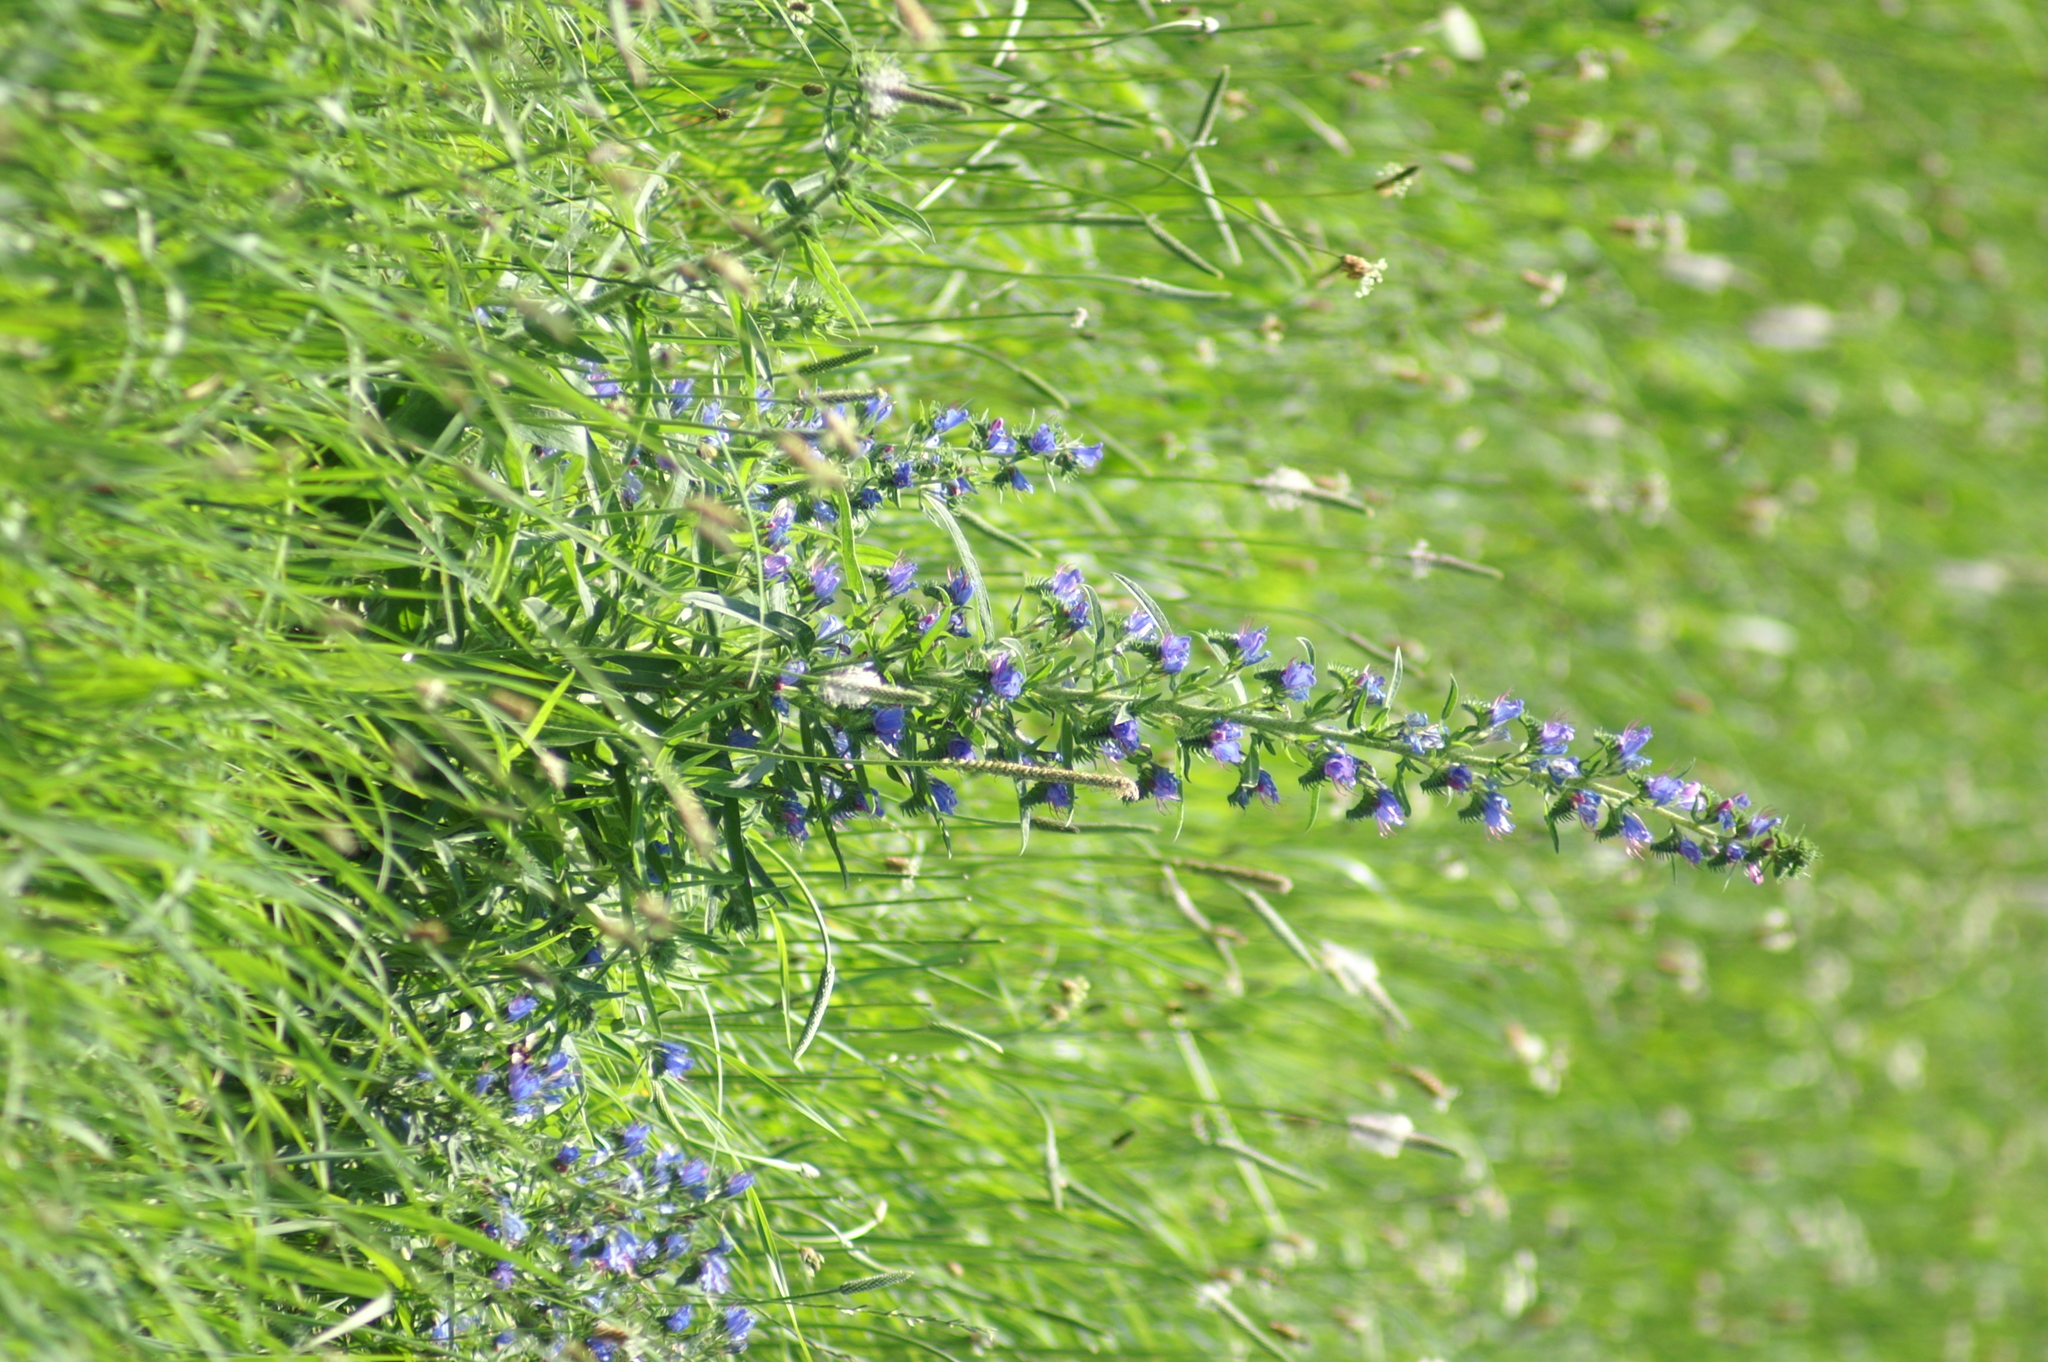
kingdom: Plantae
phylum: Tracheophyta
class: Magnoliopsida
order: Boraginales
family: Boraginaceae
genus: Echium
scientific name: Echium vulgare
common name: Common viper's bugloss
